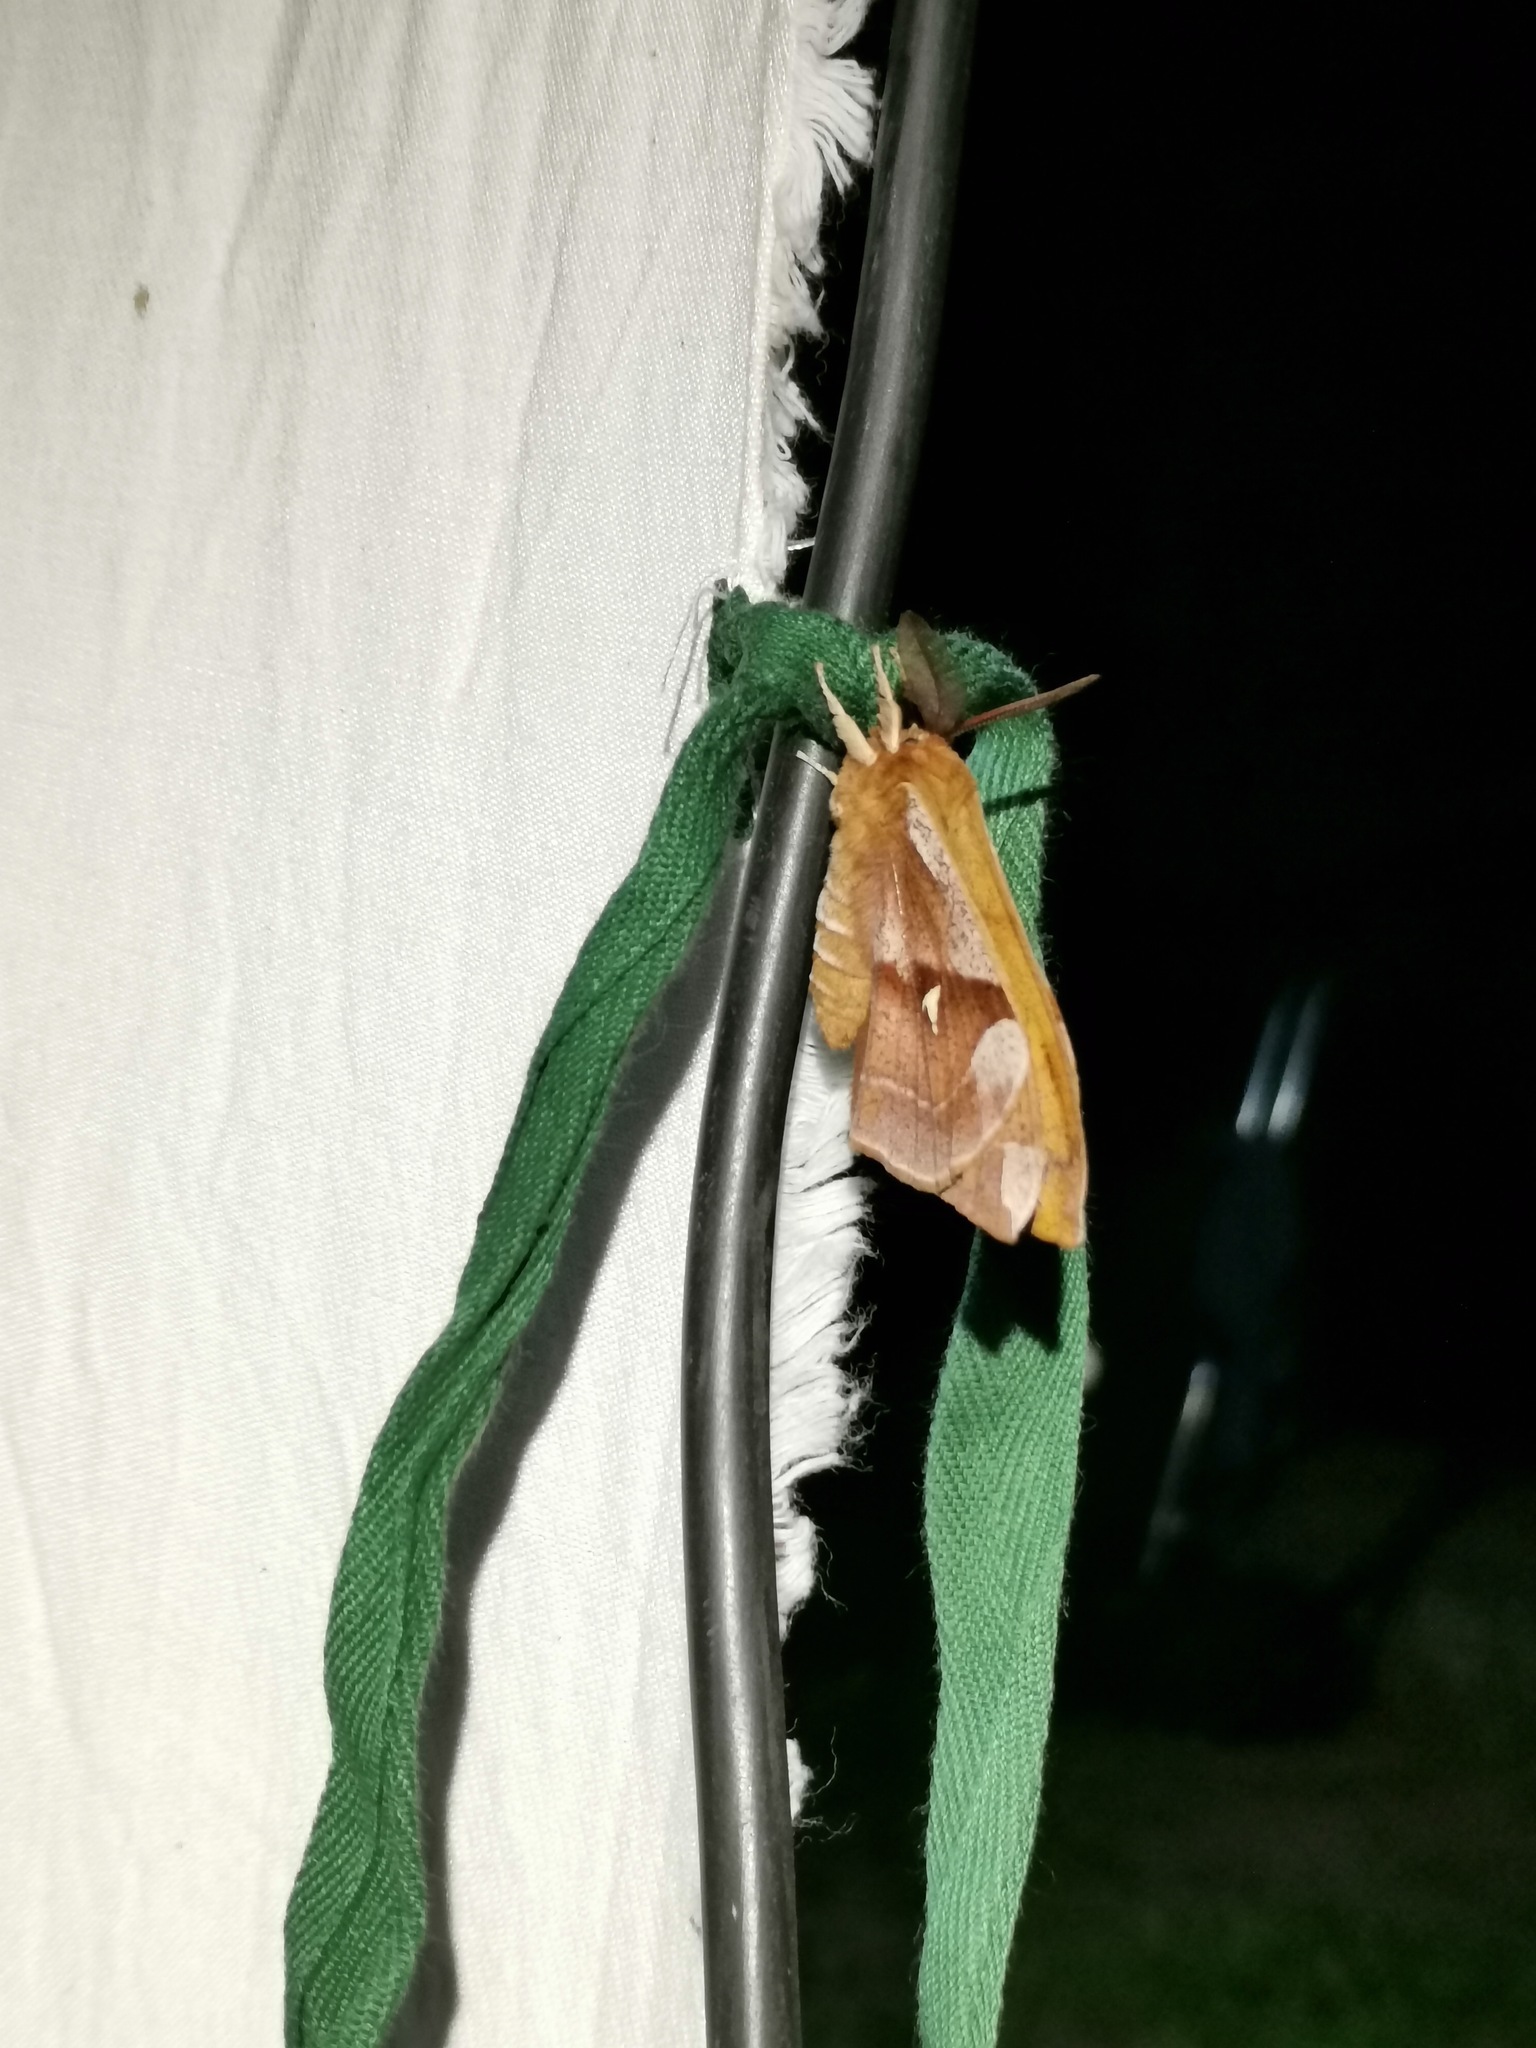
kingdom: Animalia
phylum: Arthropoda
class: Insecta
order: Lepidoptera
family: Saturniidae
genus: Aglia
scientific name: Aglia tau
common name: Tau emperor
